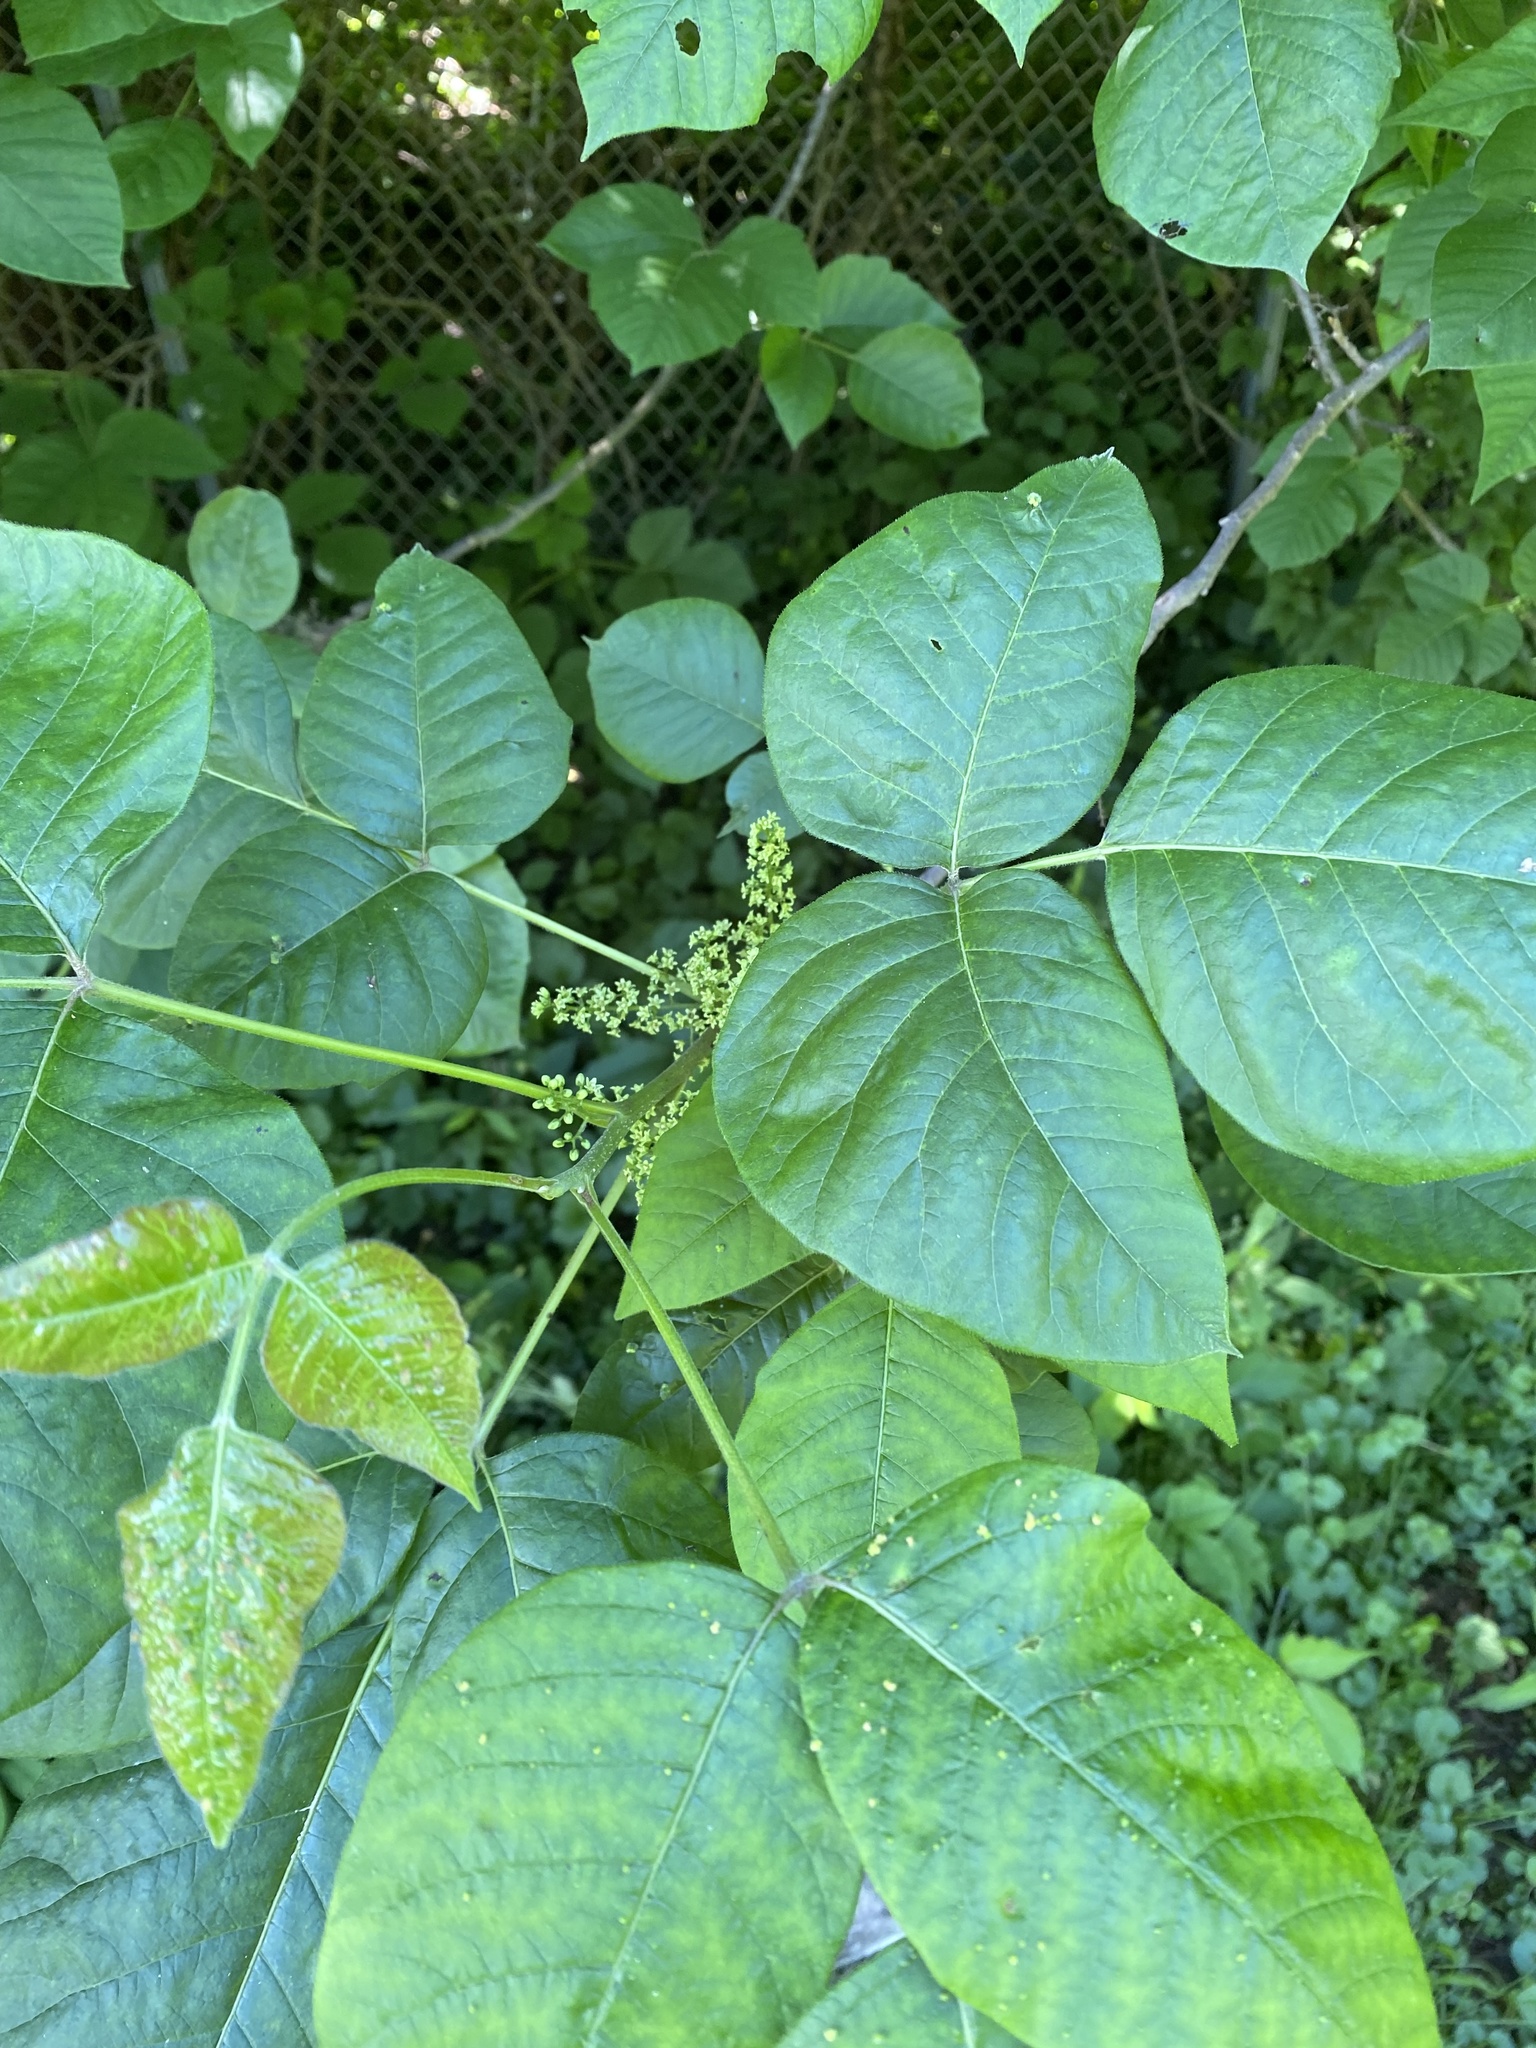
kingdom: Plantae
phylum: Tracheophyta
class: Magnoliopsida
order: Sapindales
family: Anacardiaceae
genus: Toxicodendron
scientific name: Toxicodendron radicans
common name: Poison ivy
